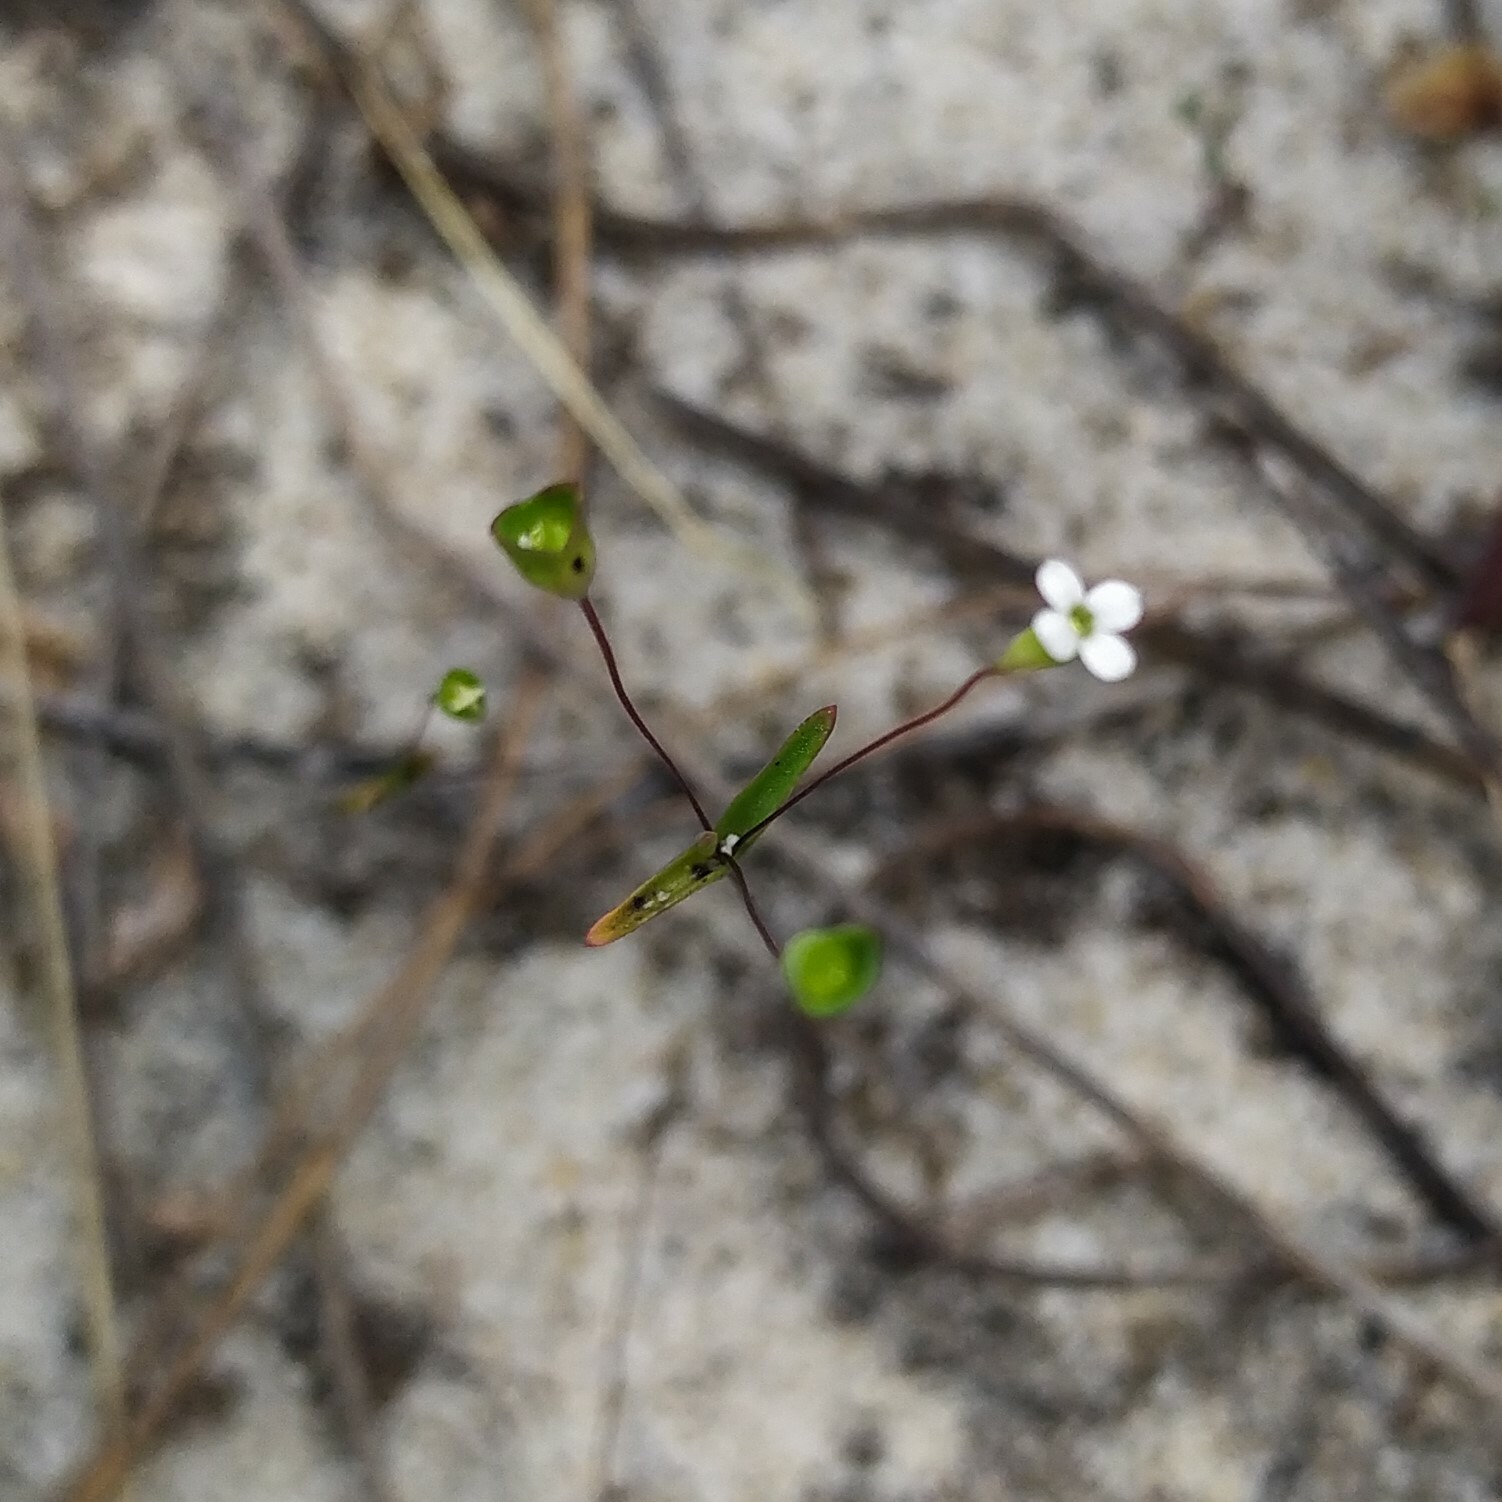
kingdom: Plantae
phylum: Tracheophyta
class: Magnoliopsida
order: Gentianales
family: Loganiaceae
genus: Phyllangium
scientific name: Phyllangium divergens
